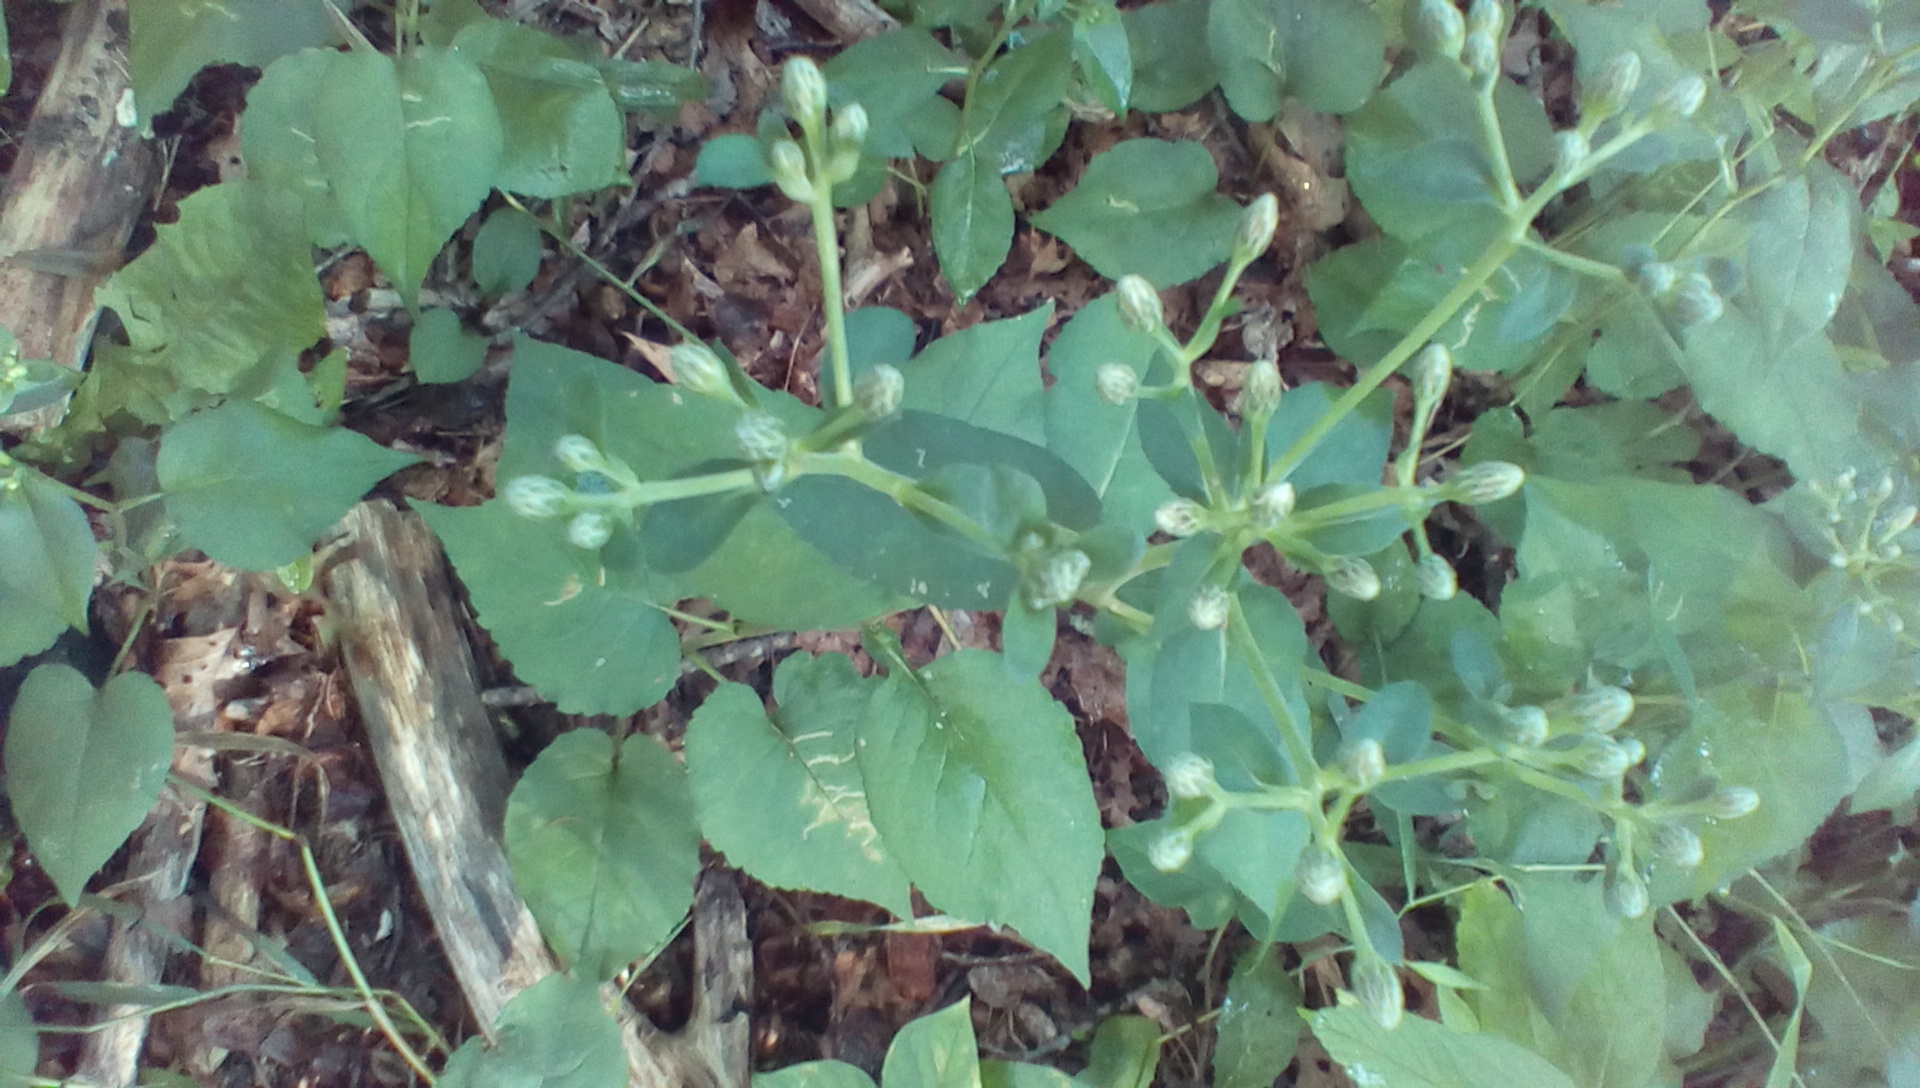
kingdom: Plantae
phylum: Tracheophyta
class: Magnoliopsida
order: Asterales
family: Asteraceae
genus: Eurybia
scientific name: Eurybia macrophylla
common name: Big-leaved aster
